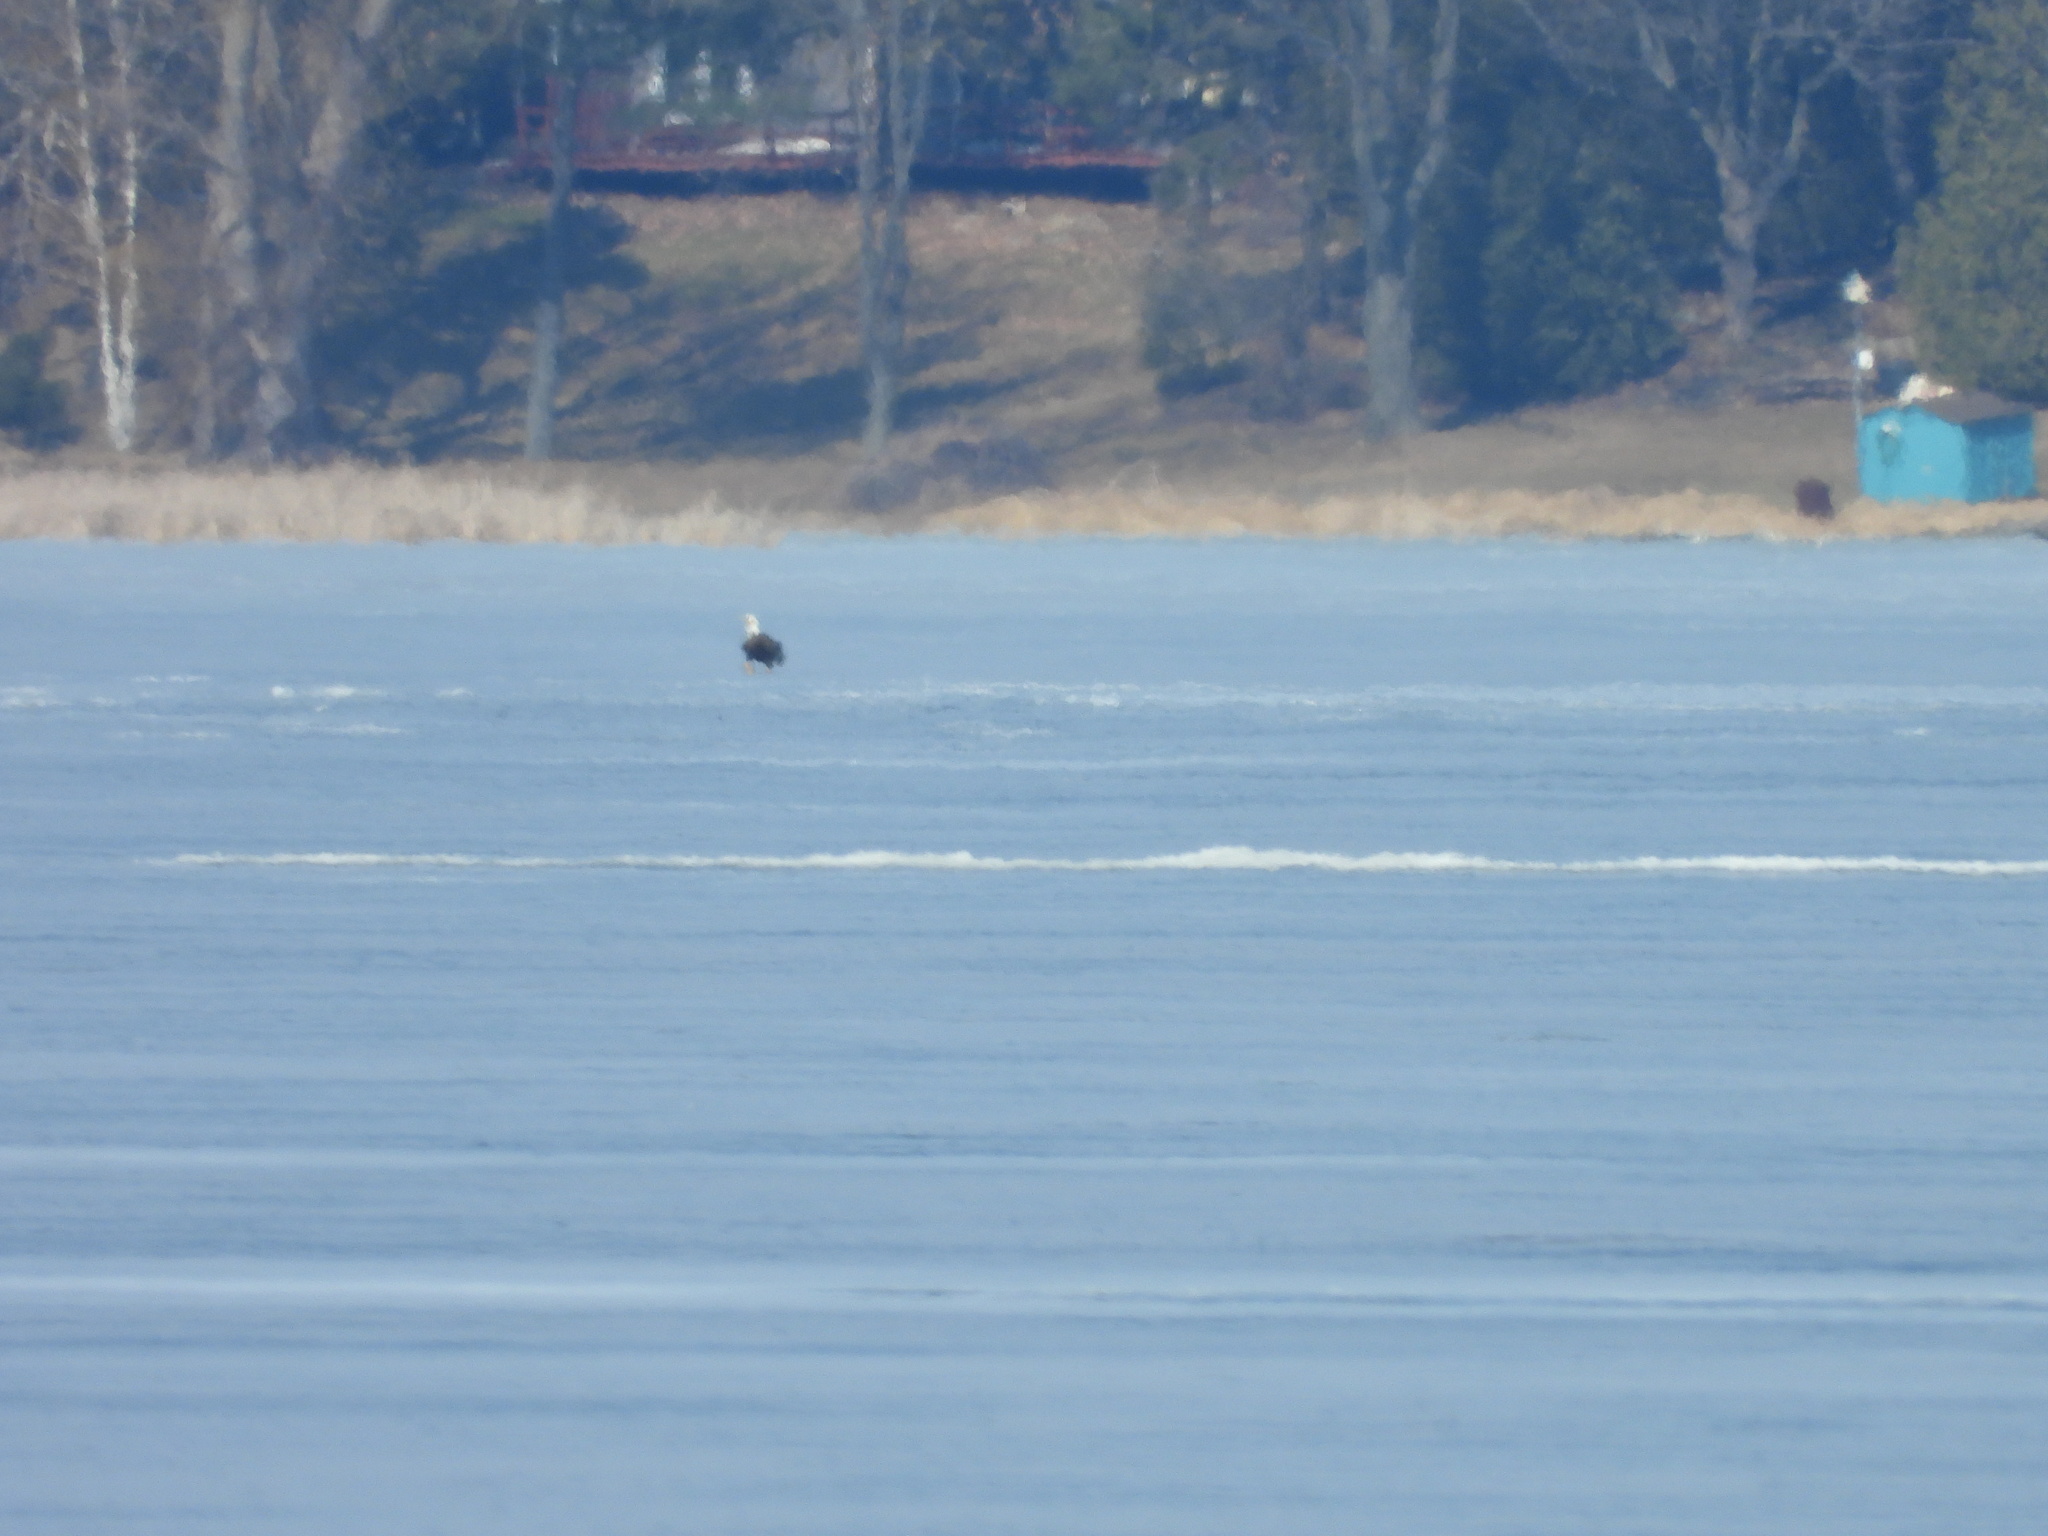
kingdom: Animalia
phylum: Chordata
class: Aves
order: Accipitriformes
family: Accipitridae
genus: Haliaeetus
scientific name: Haliaeetus leucocephalus
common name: Bald eagle
